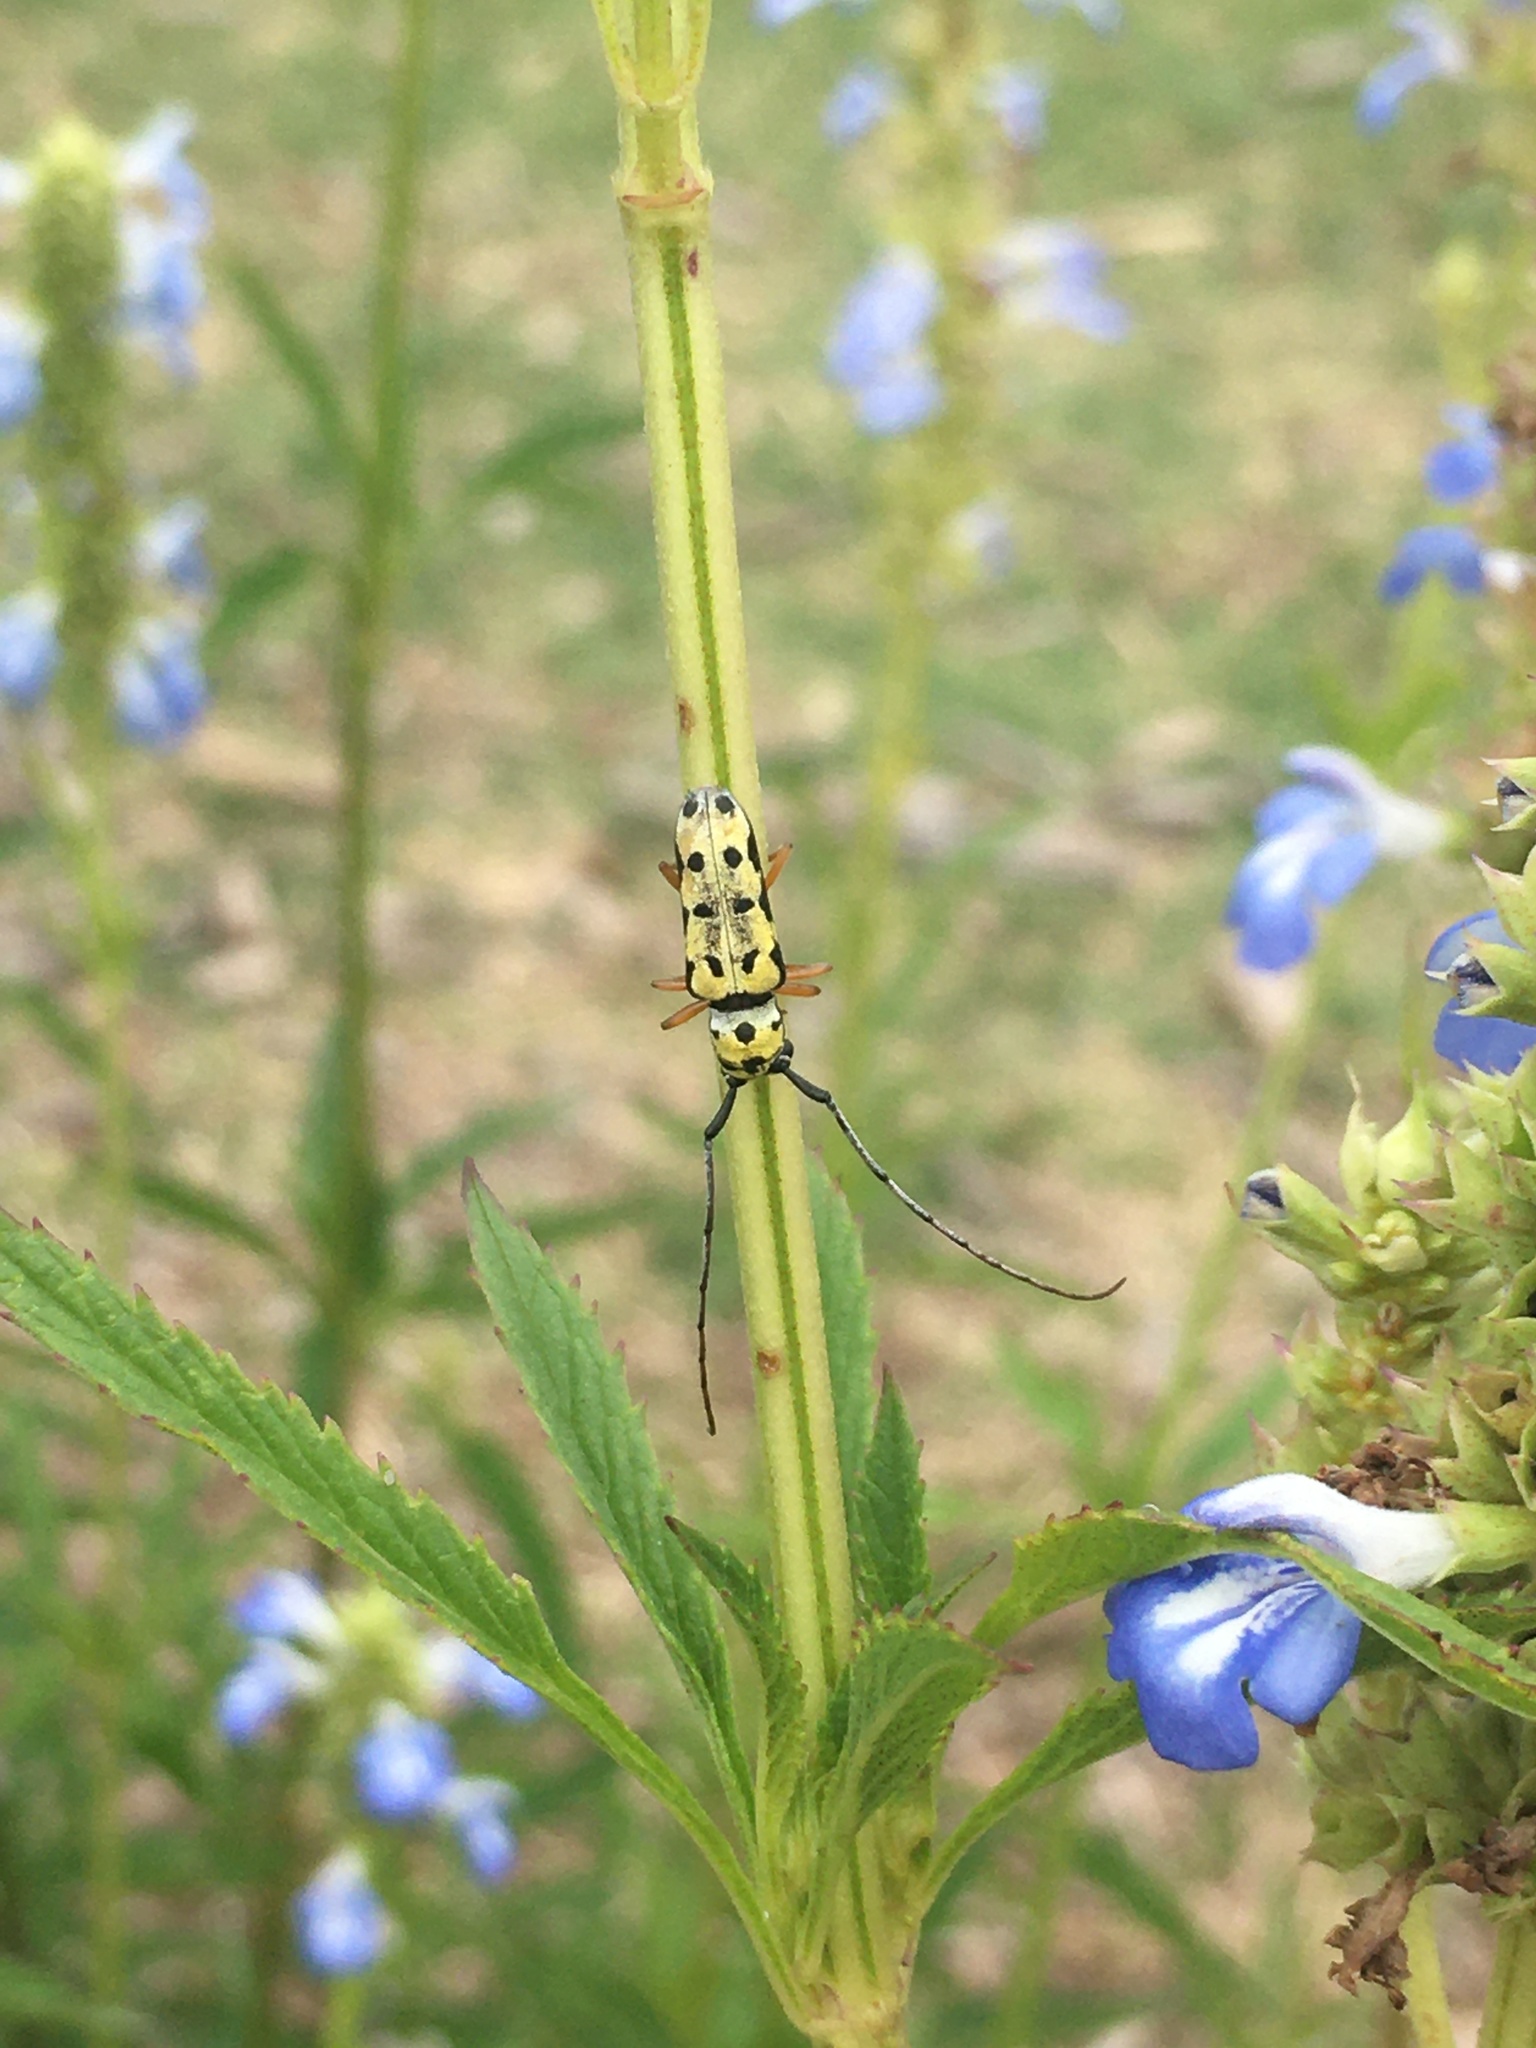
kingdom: Animalia
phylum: Arthropoda
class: Insecta
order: Coleoptera
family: Cerambycidae
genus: Zeale
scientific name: Zeale nigromaculata
